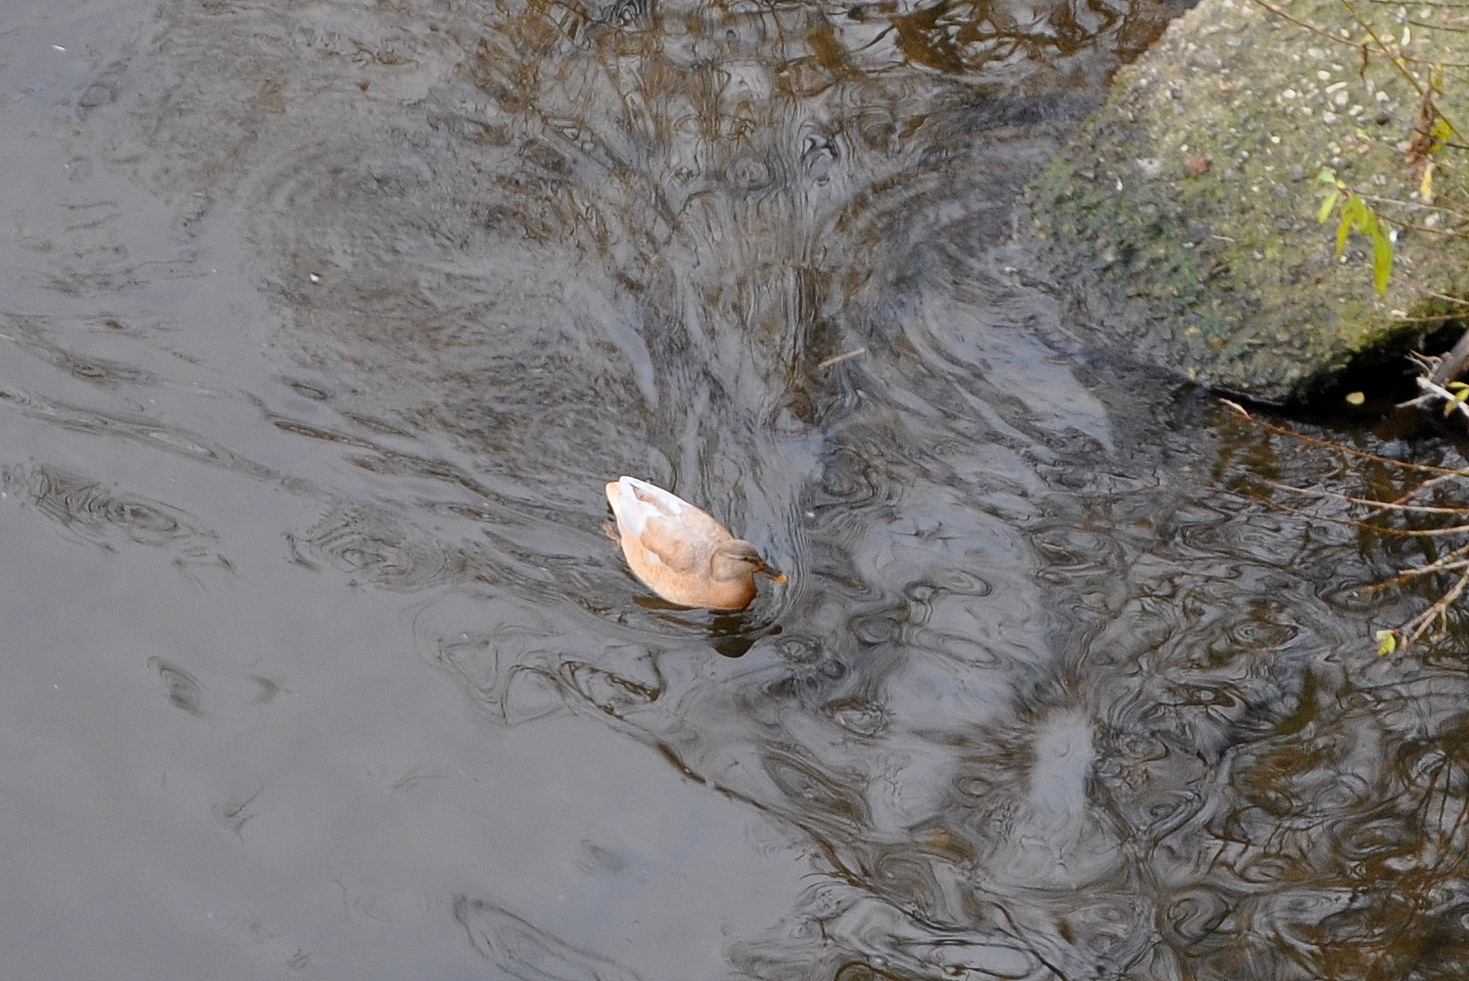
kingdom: Animalia
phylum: Chordata
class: Aves
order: Anseriformes
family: Anatidae
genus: Anas
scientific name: Anas platyrhynchos
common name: Mallard
